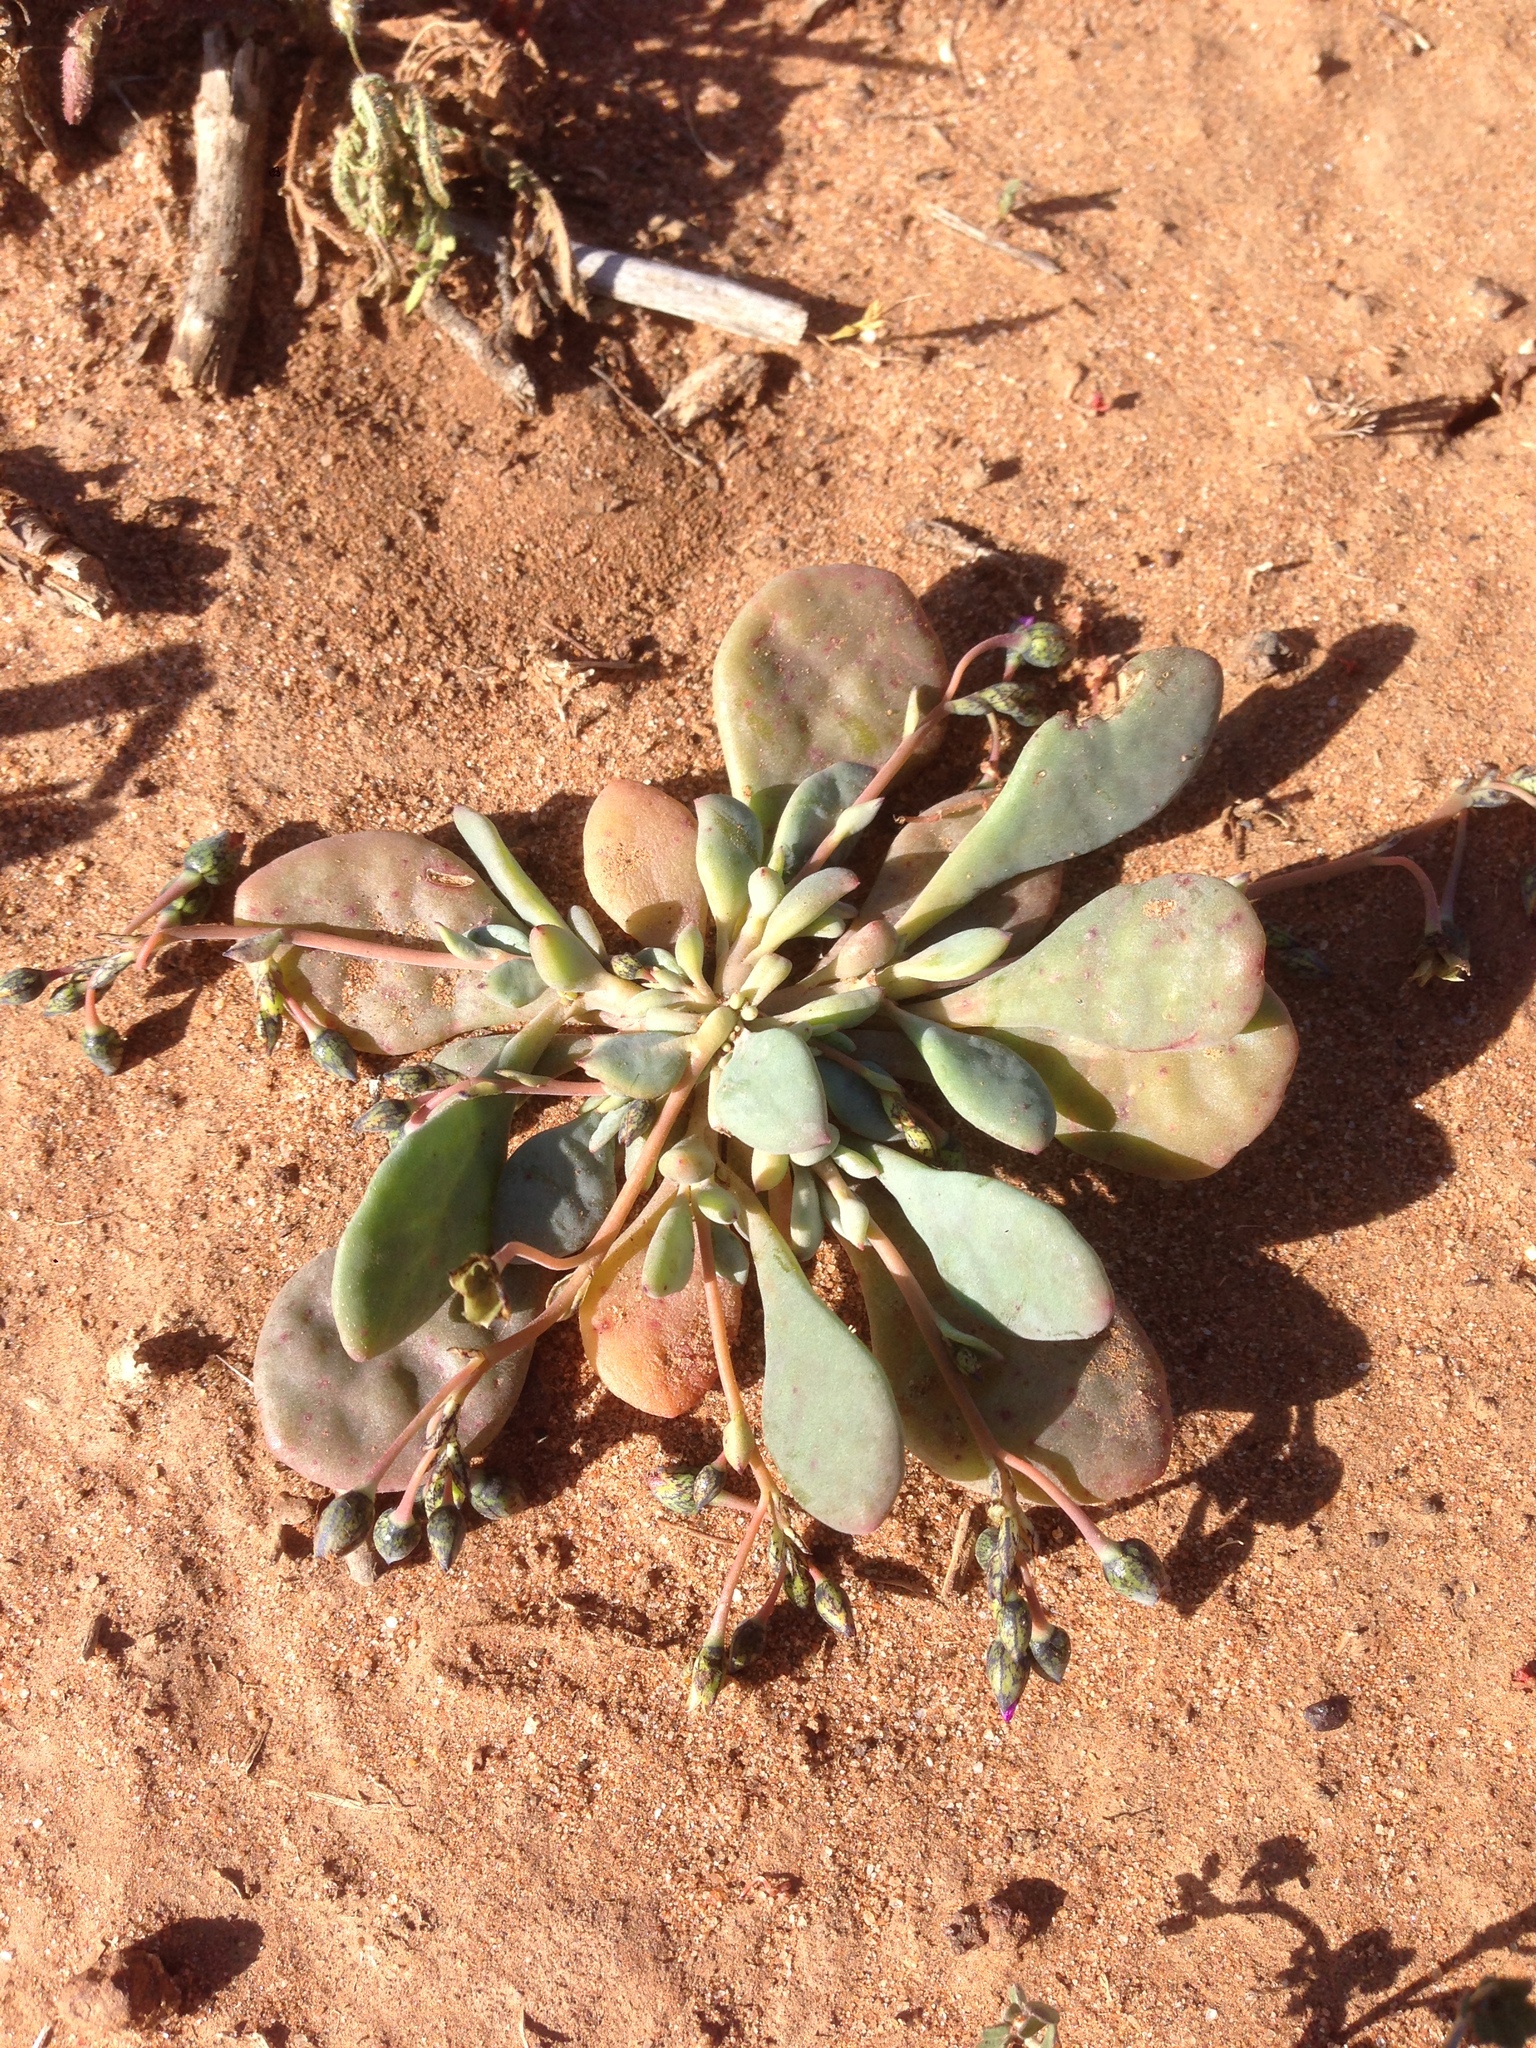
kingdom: Plantae
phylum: Tracheophyta
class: Magnoliopsida
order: Caryophyllales
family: Montiaceae
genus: Cistanthe
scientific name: Cistanthe maritima
